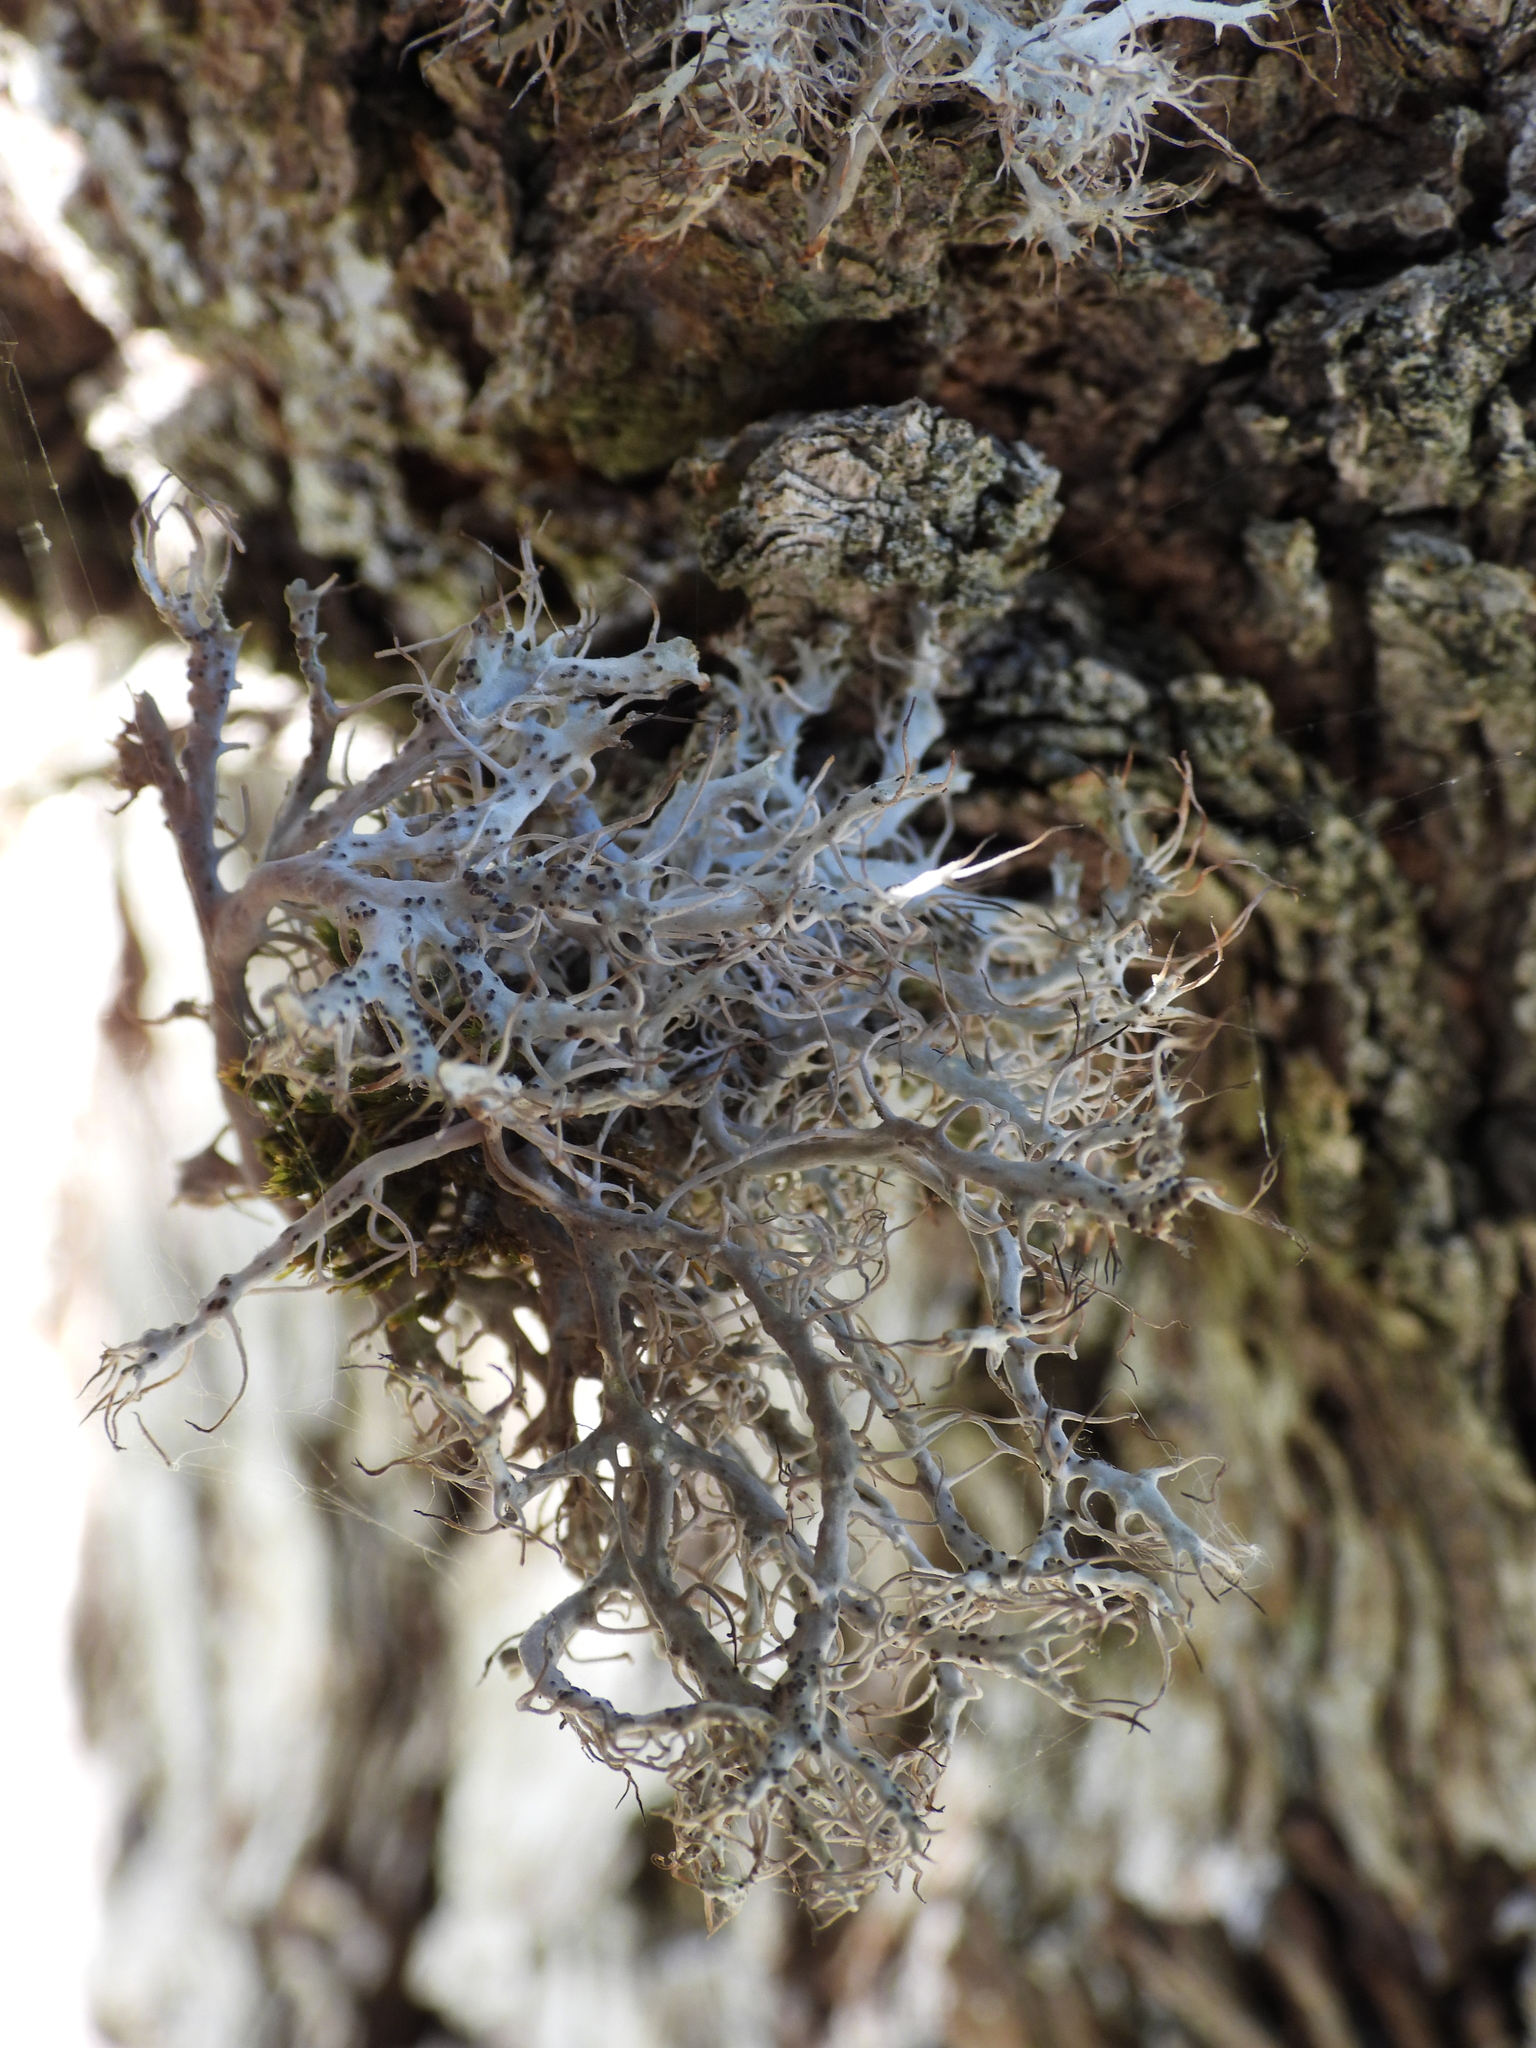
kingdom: Fungi
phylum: Ascomycota
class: Lecanoromycetes
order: Caliciales
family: Physciaceae
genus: Anaptychia
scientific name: Anaptychia ciliaris
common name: Great ciliated lichen
